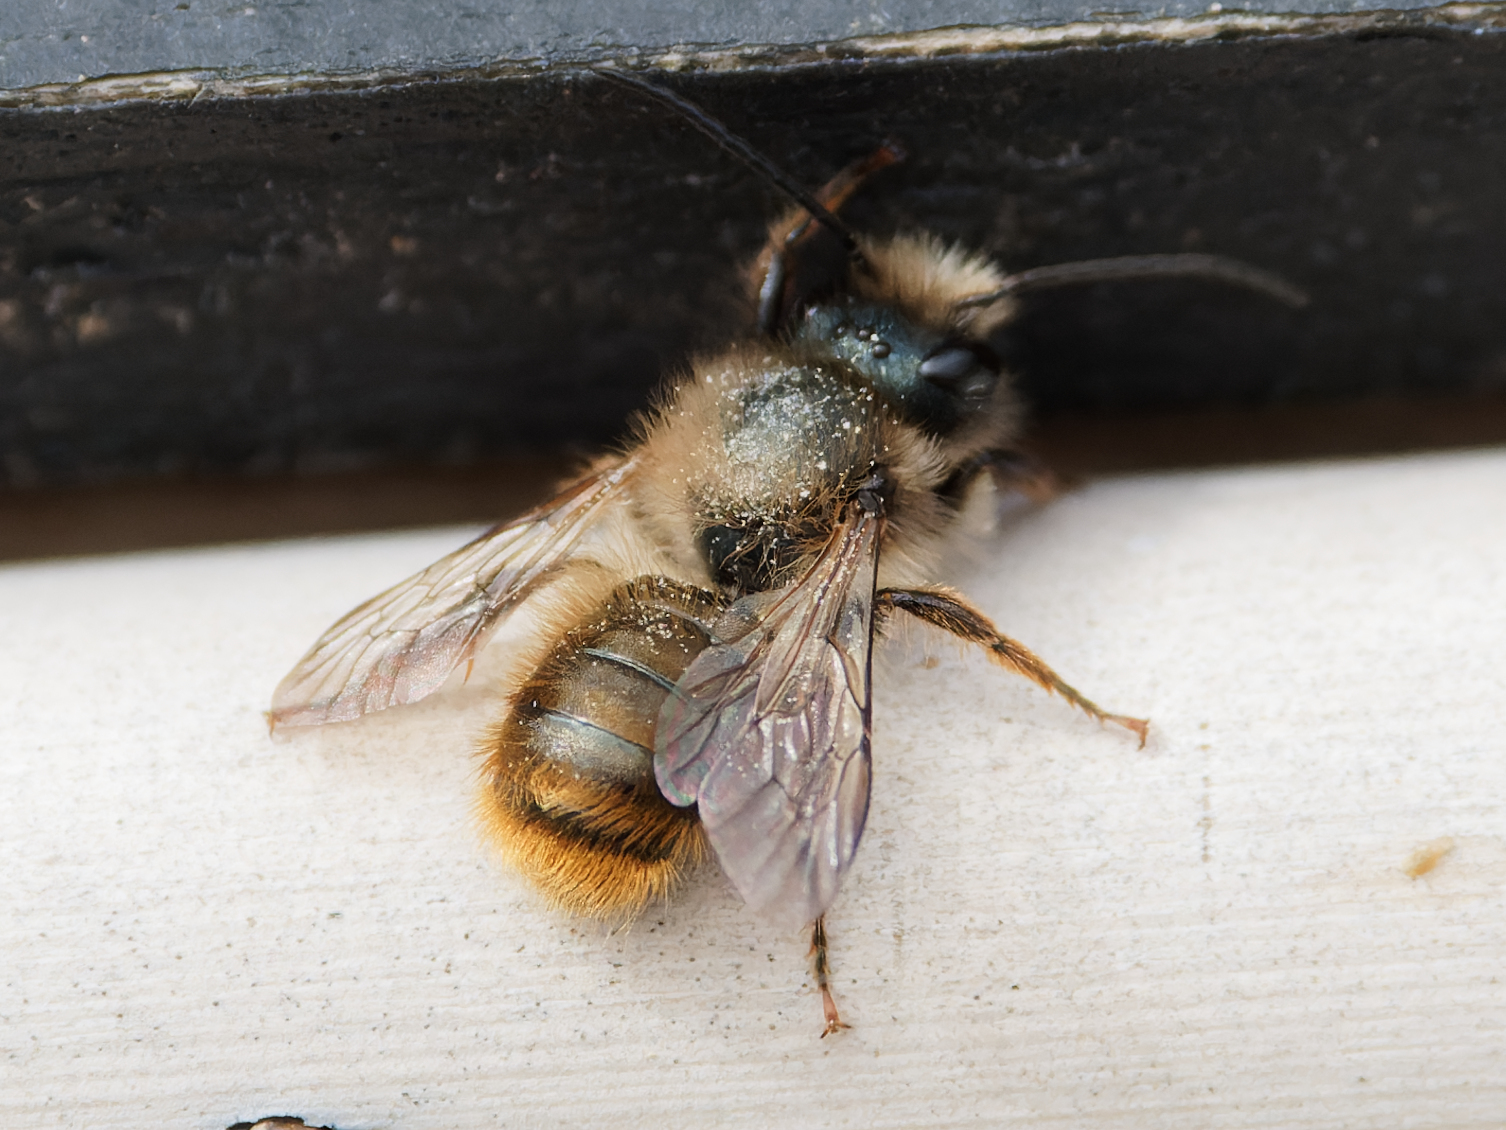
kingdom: Animalia
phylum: Arthropoda
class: Insecta
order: Hymenoptera
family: Megachilidae
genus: Osmia
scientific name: Osmia bicornis
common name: Red mason bee
